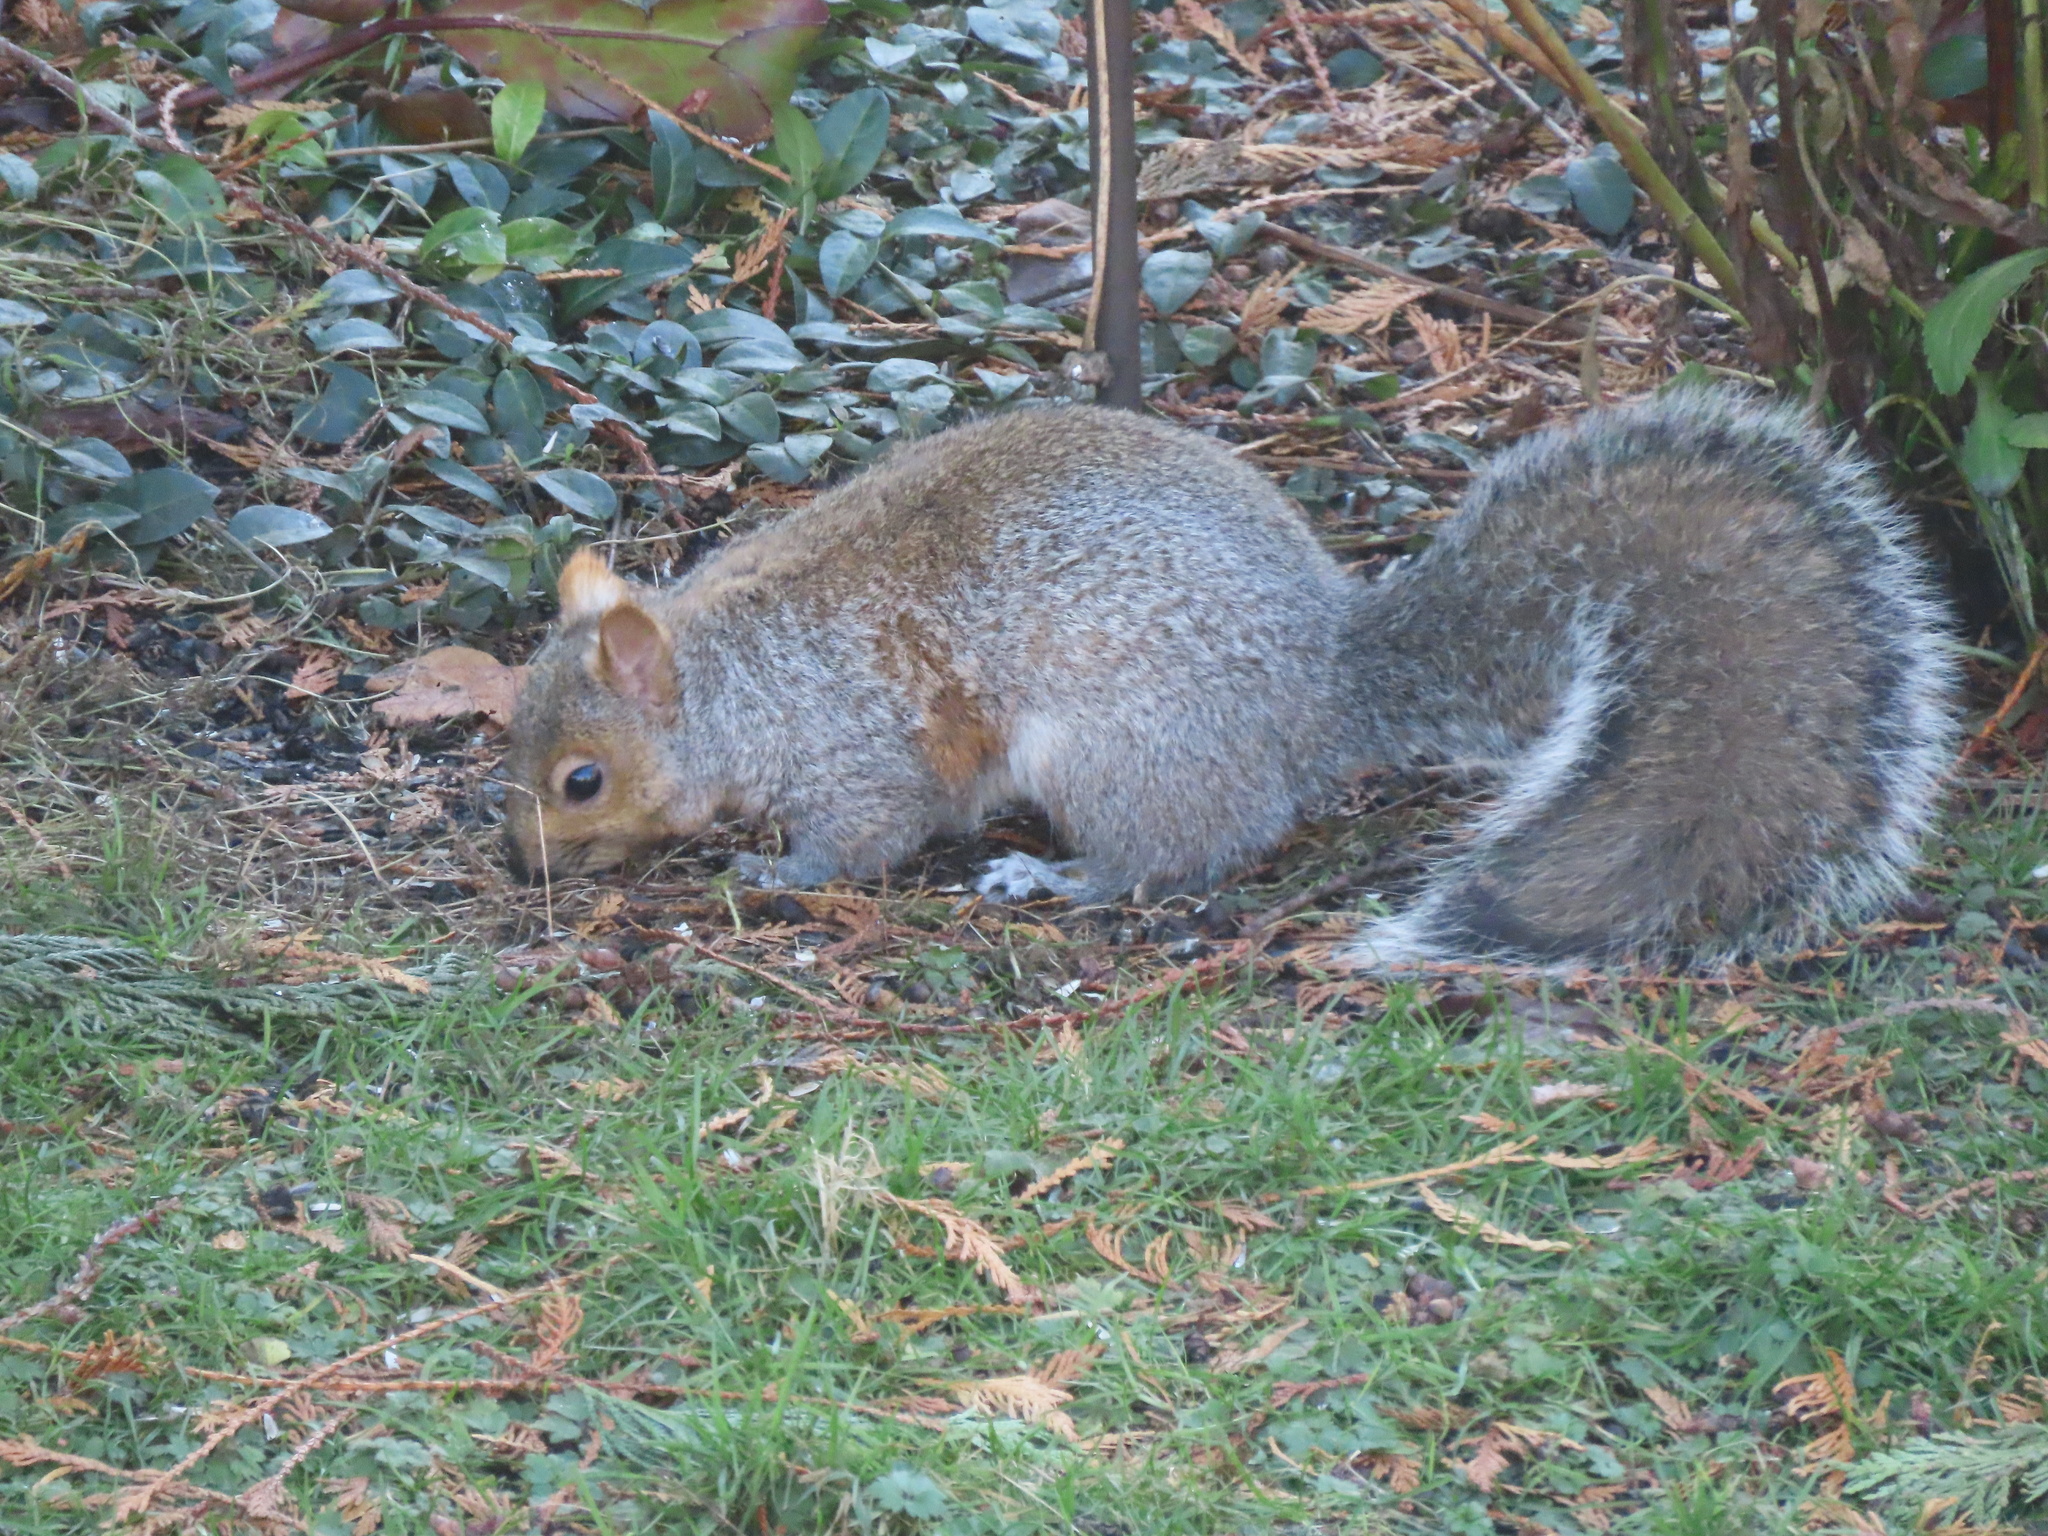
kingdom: Animalia
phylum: Chordata
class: Mammalia
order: Rodentia
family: Sciuridae
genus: Sciurus
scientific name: Sciurus carolinensis
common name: Eastern gray squirrel
